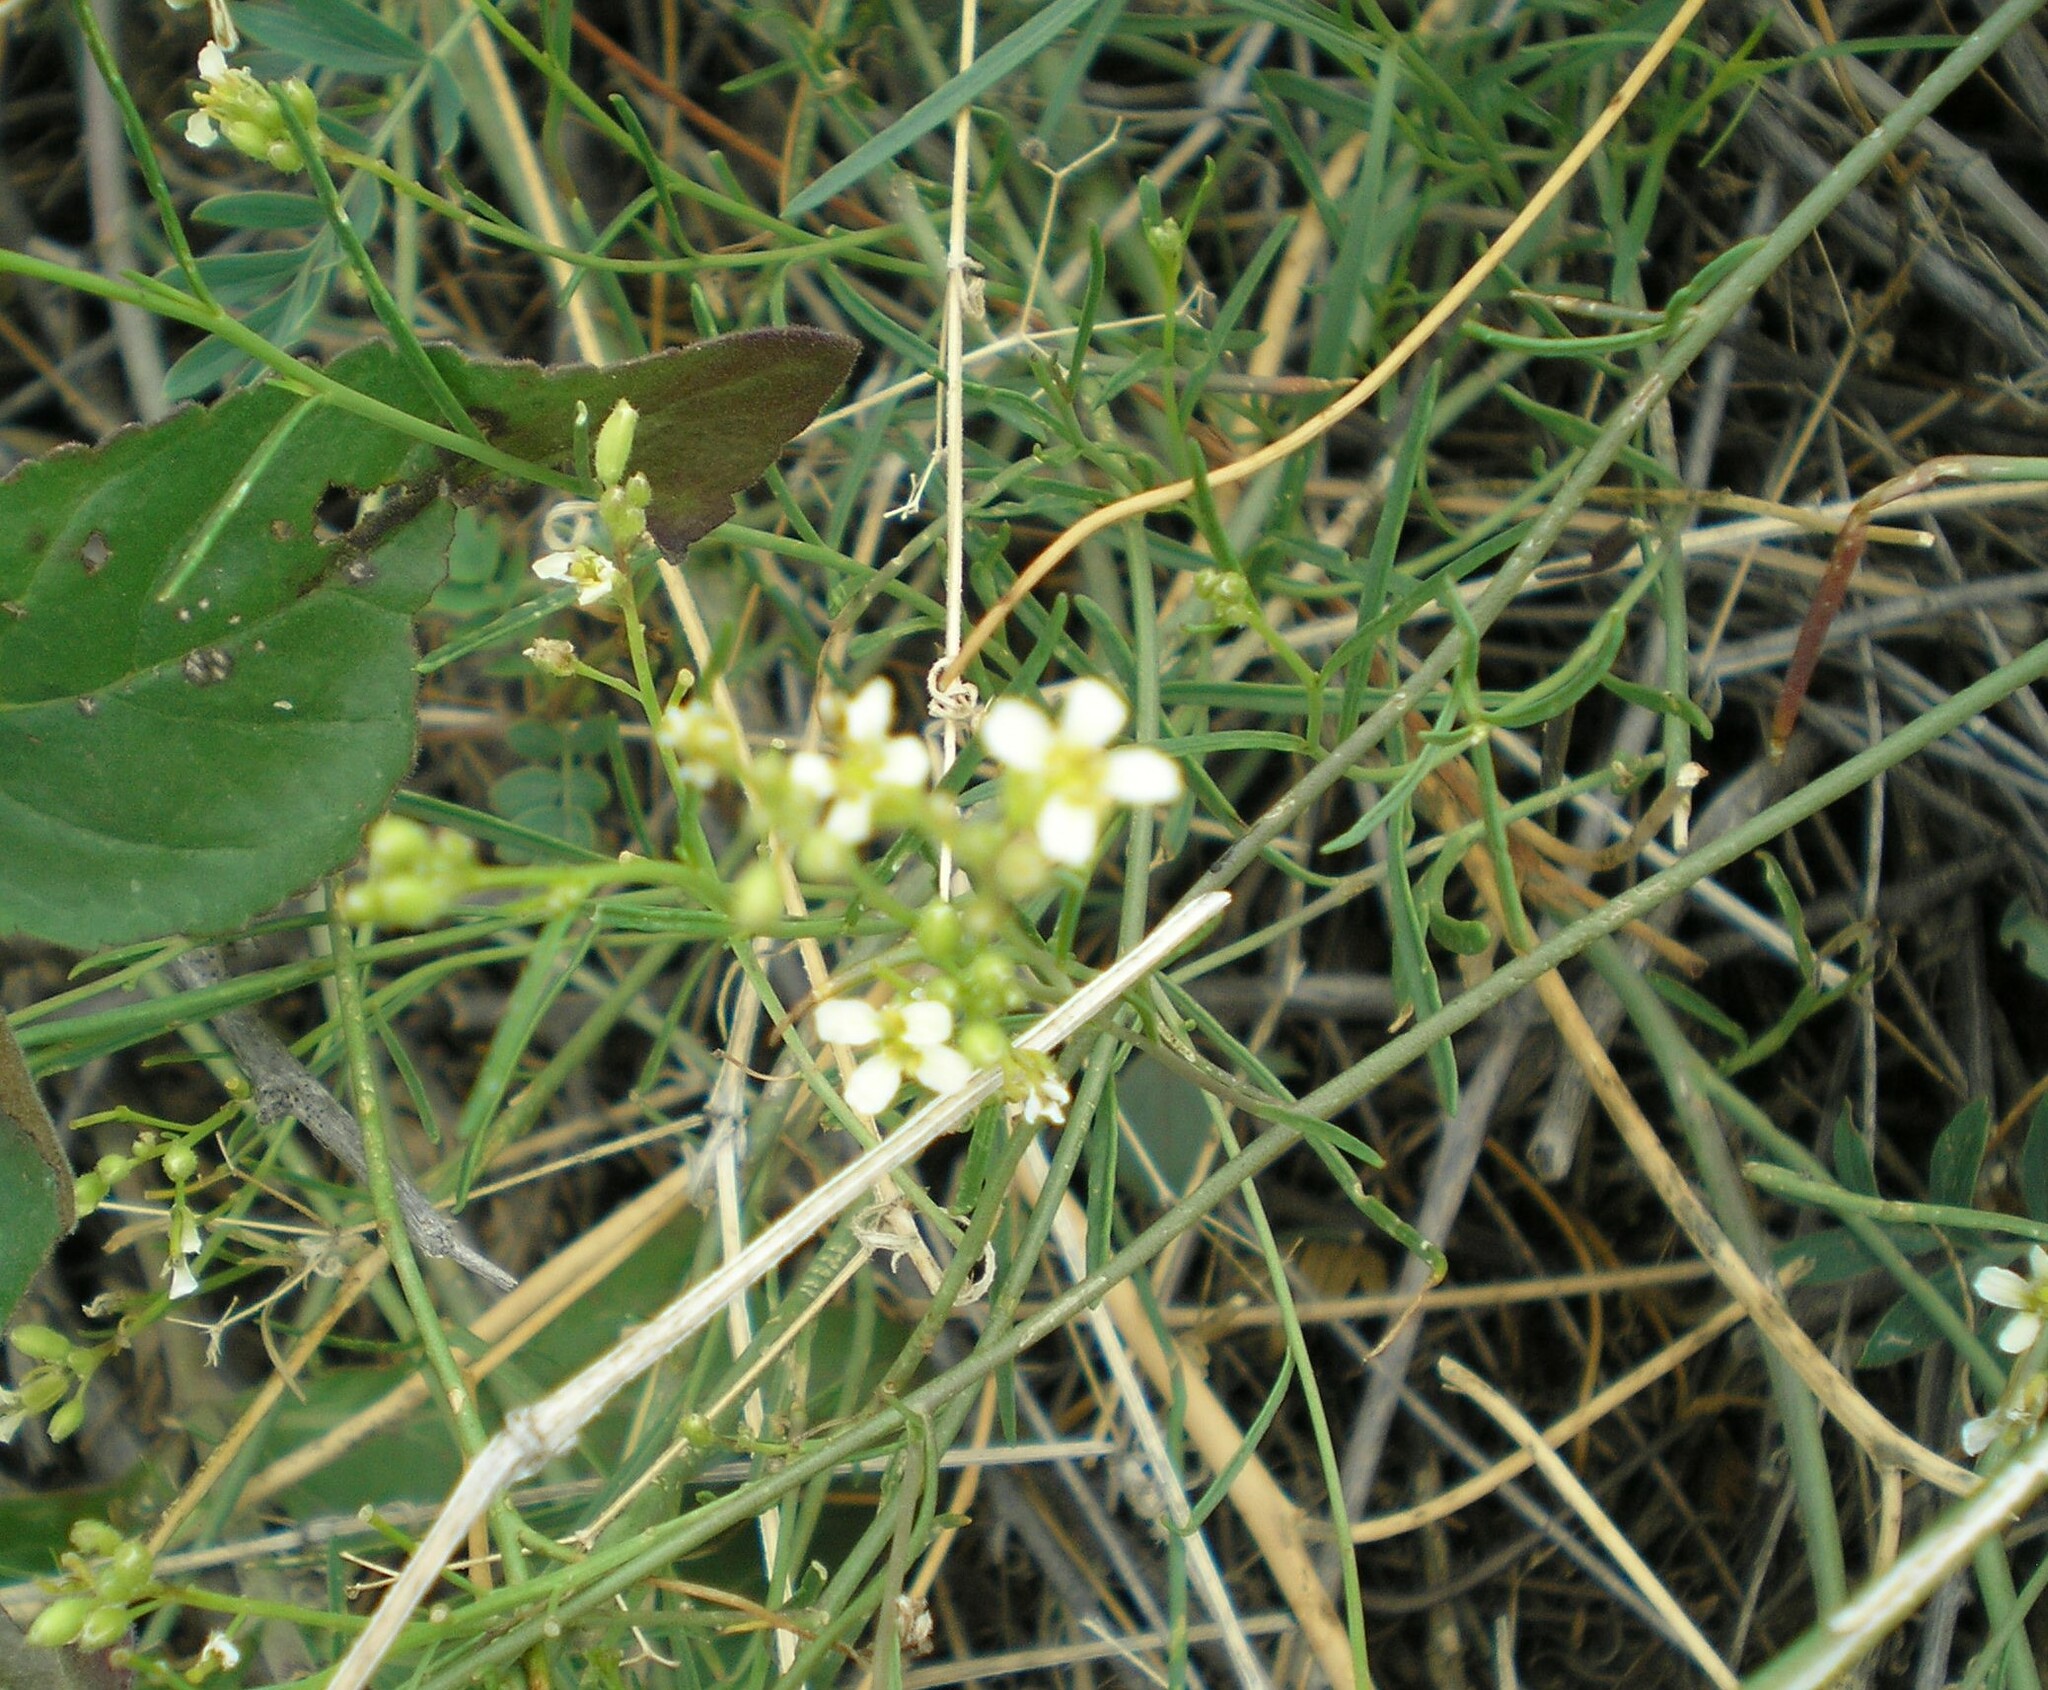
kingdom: Plantae
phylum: Tracheophyta
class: Magnoliopsida
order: Brassicales
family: Brassicaceae
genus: Sisymbrium
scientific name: Sisymbrium altissimum
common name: Tall rocket
